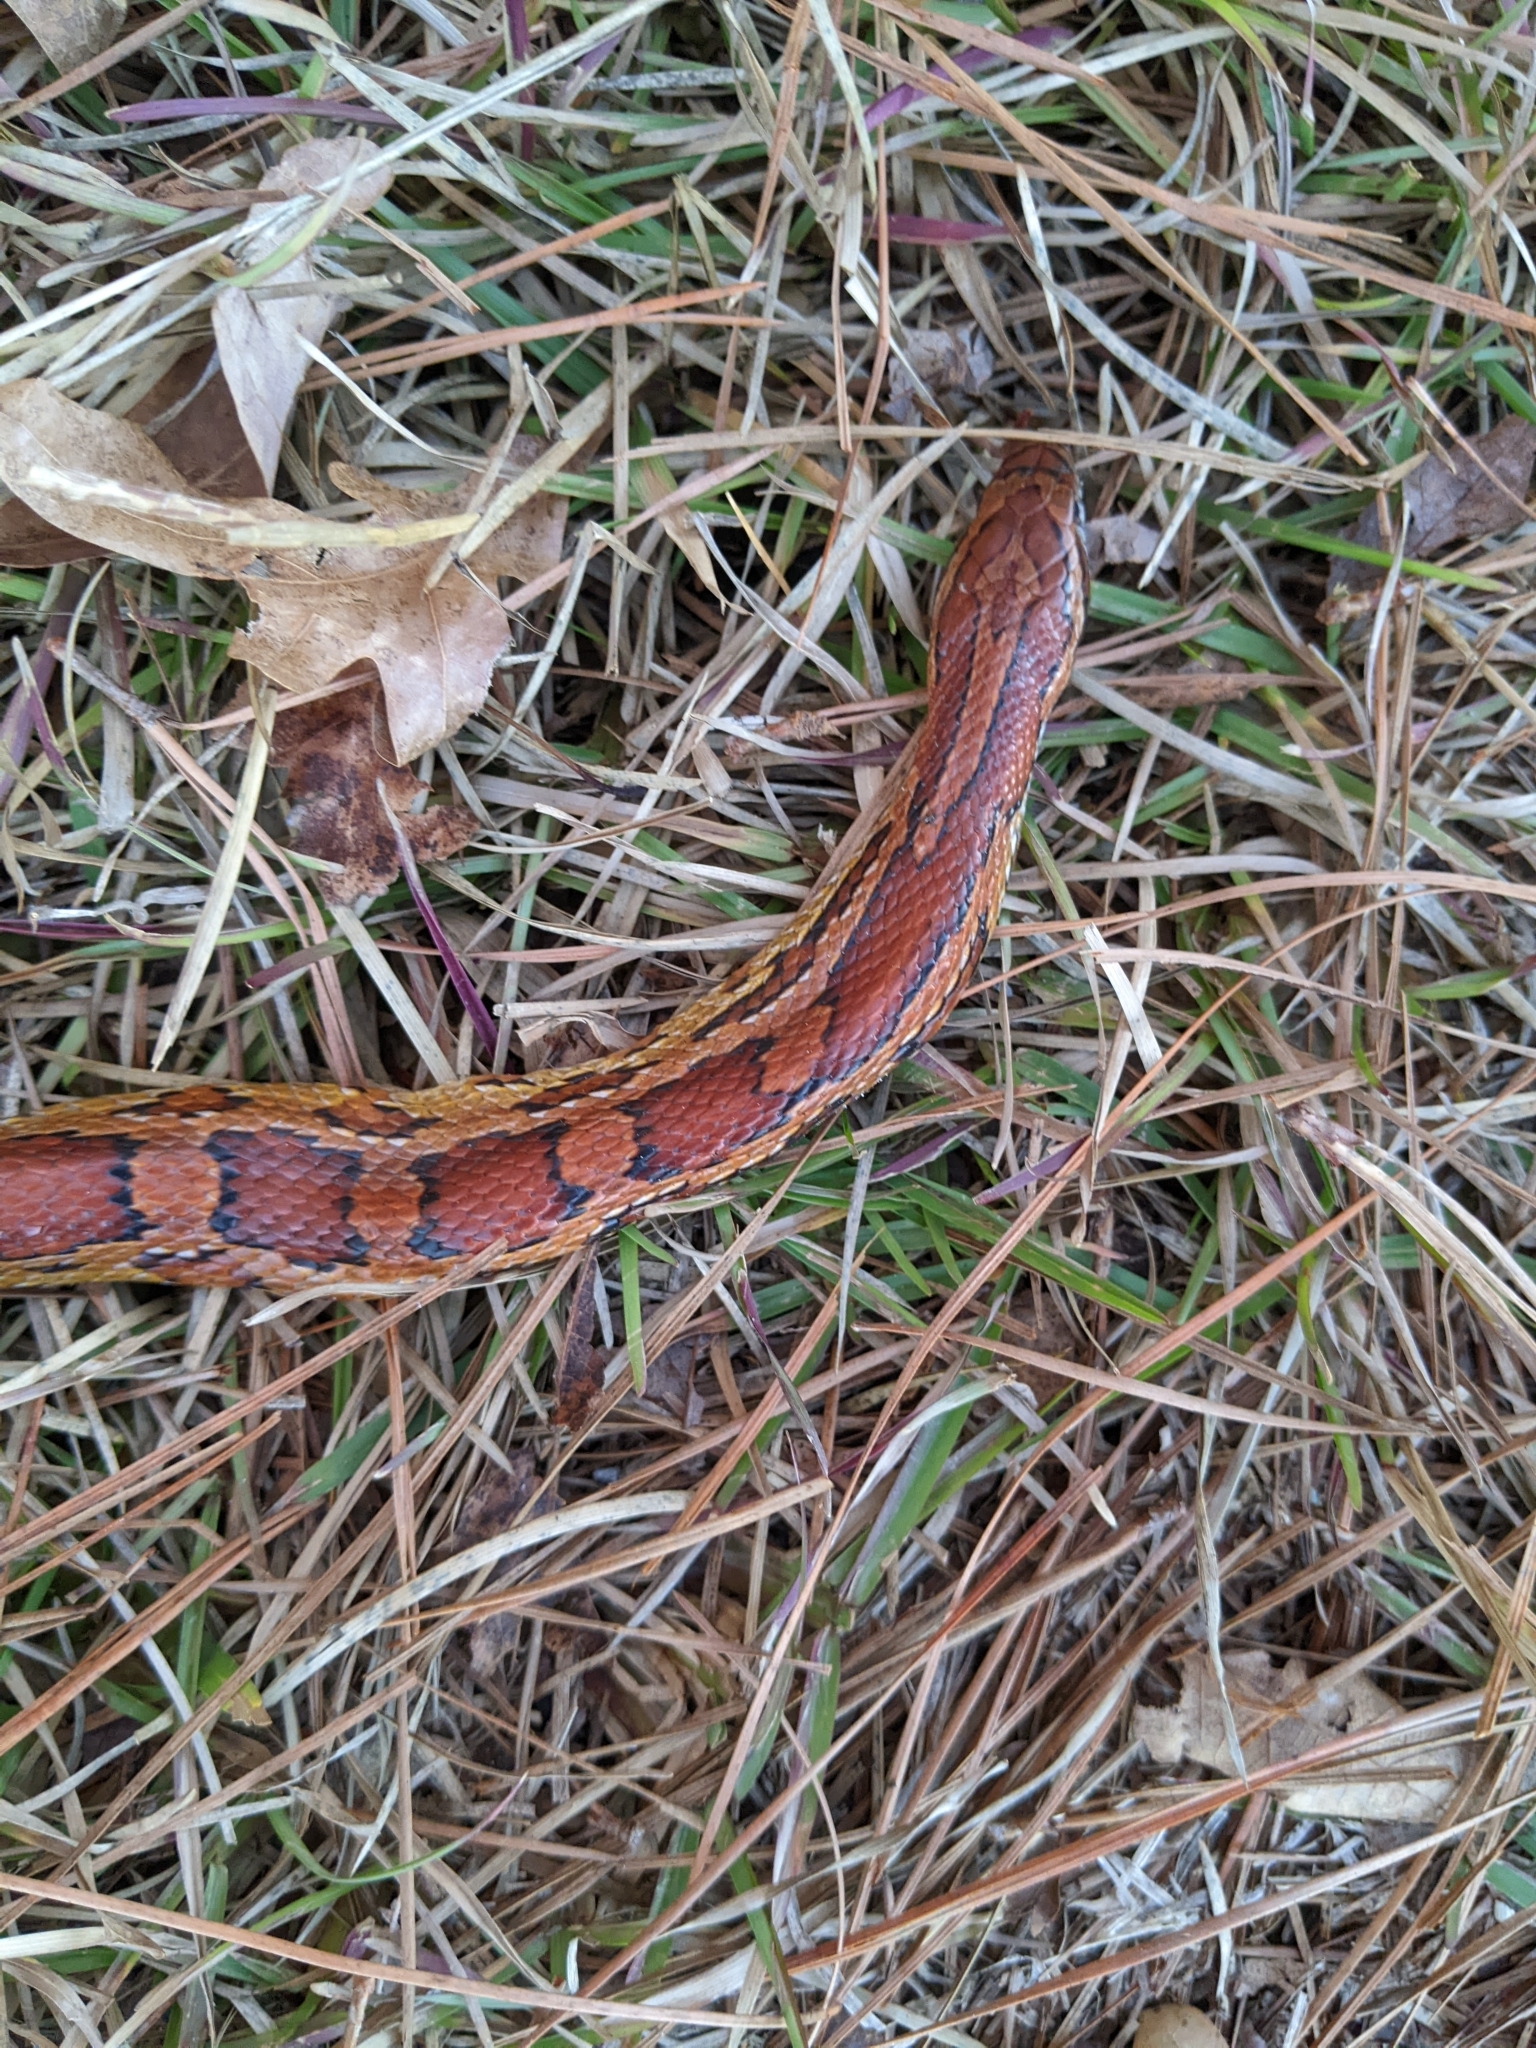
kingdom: Animalia
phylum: Chordata
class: Squamata
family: Colubridae
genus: Pantherophis
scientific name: Pantherophis guttatus
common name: Red cornsnake
